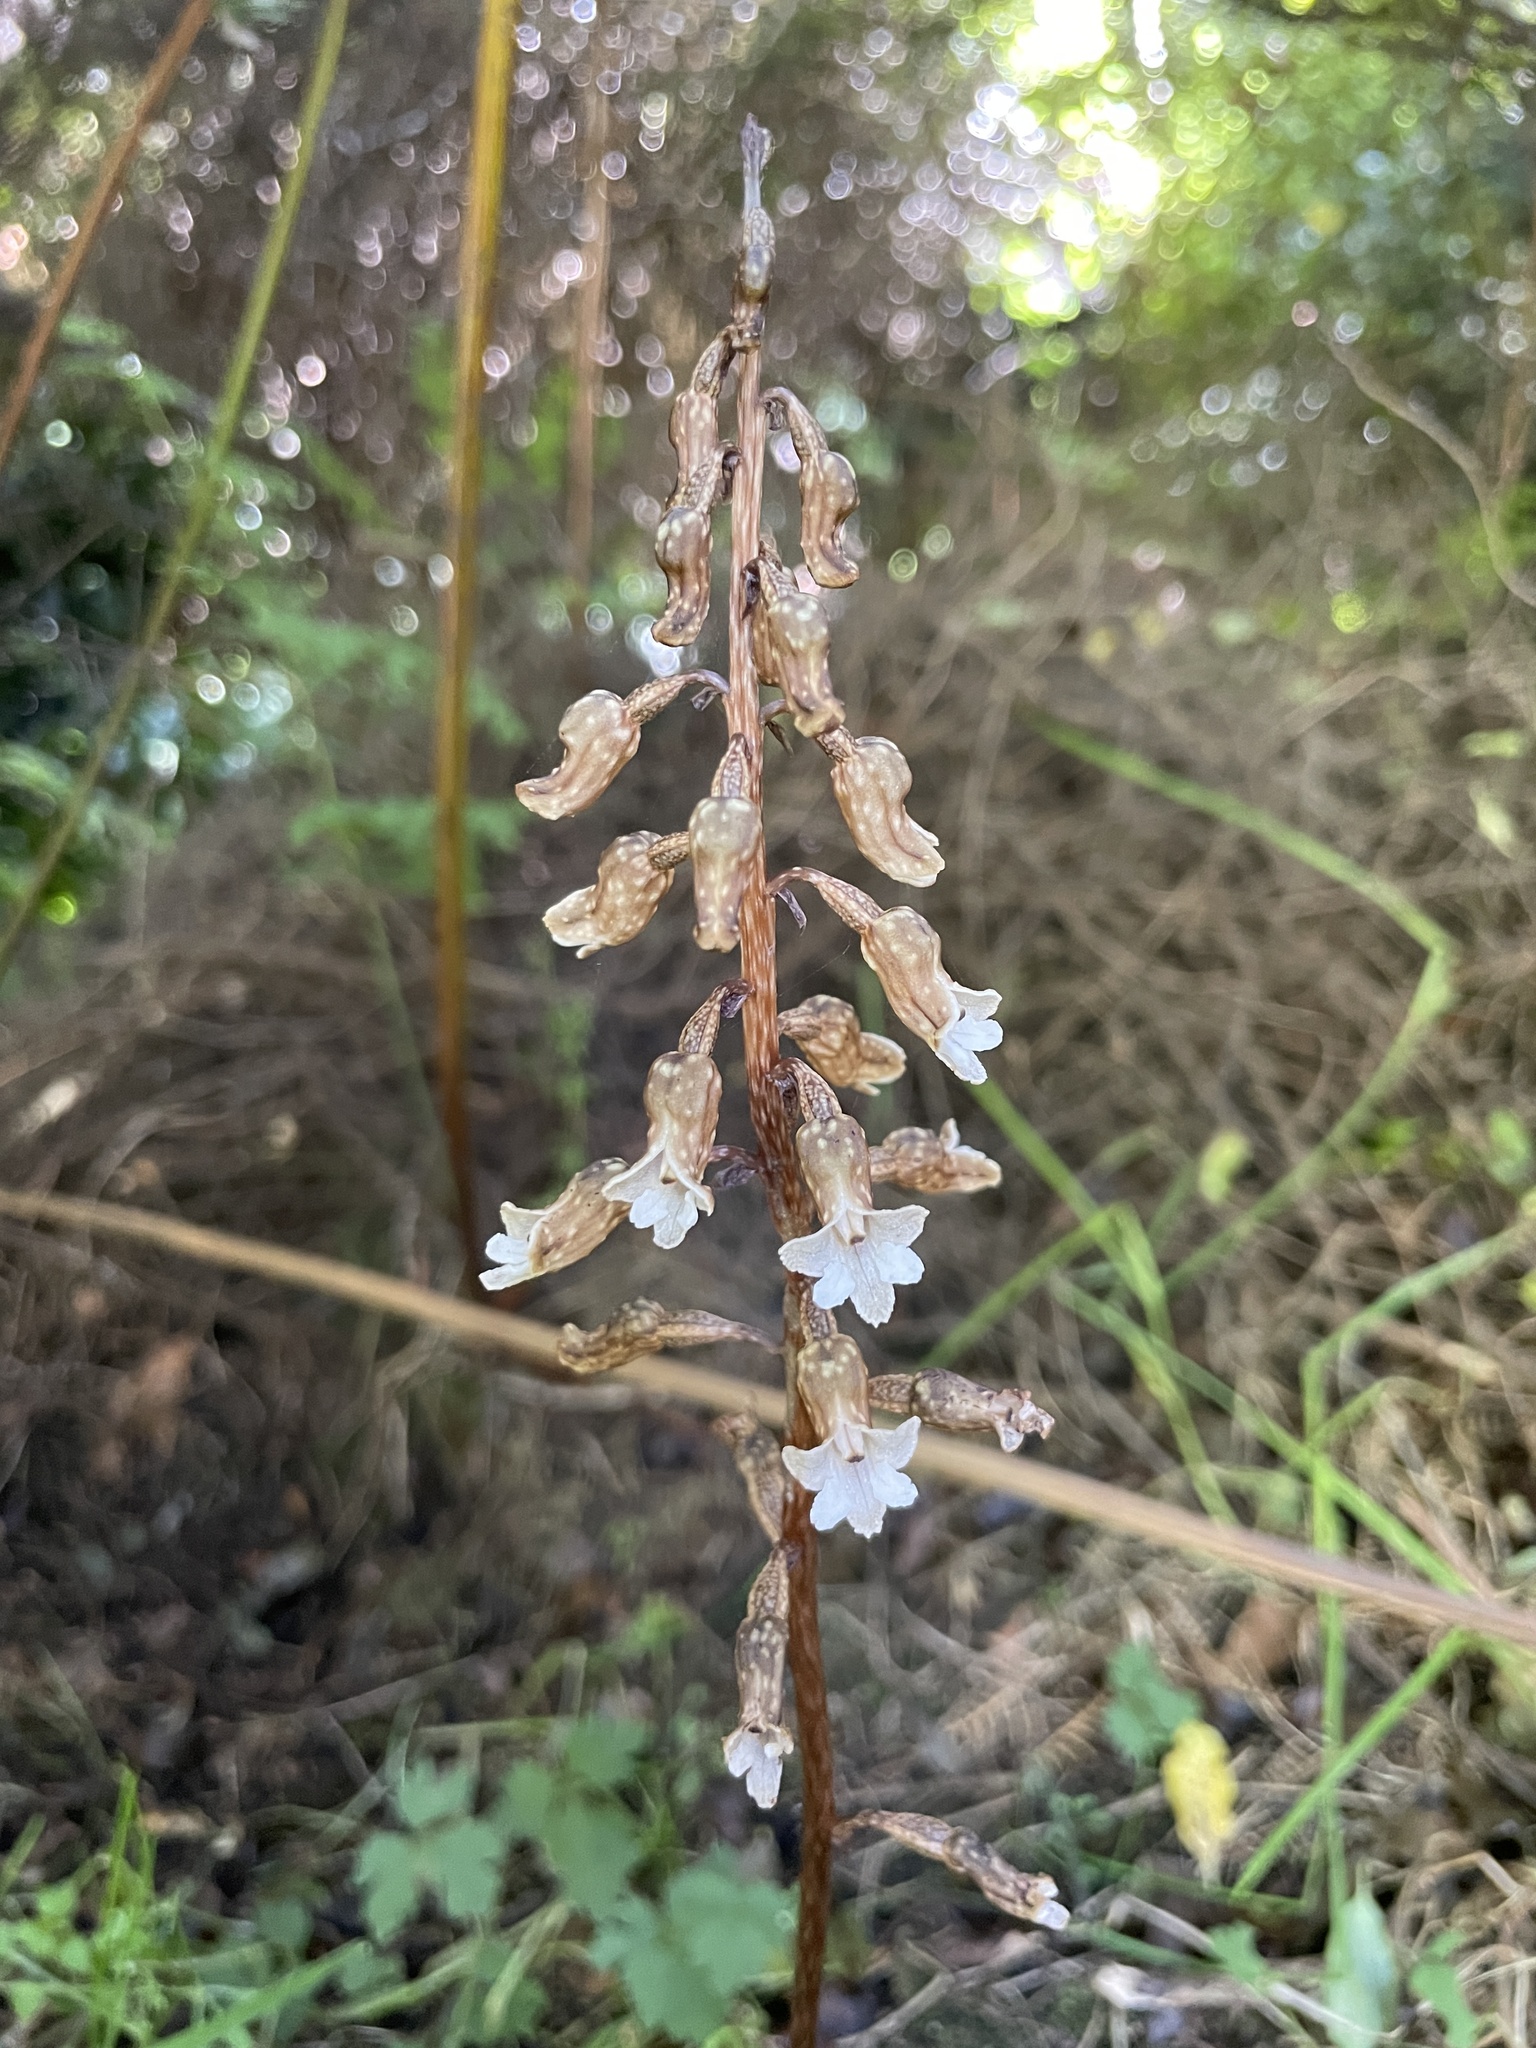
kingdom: Plantae
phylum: Tracheophyta
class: Liliopsida
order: Asparagales
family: Orchidaceae
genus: Gastrodia
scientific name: Gastrodia cunninghamii
